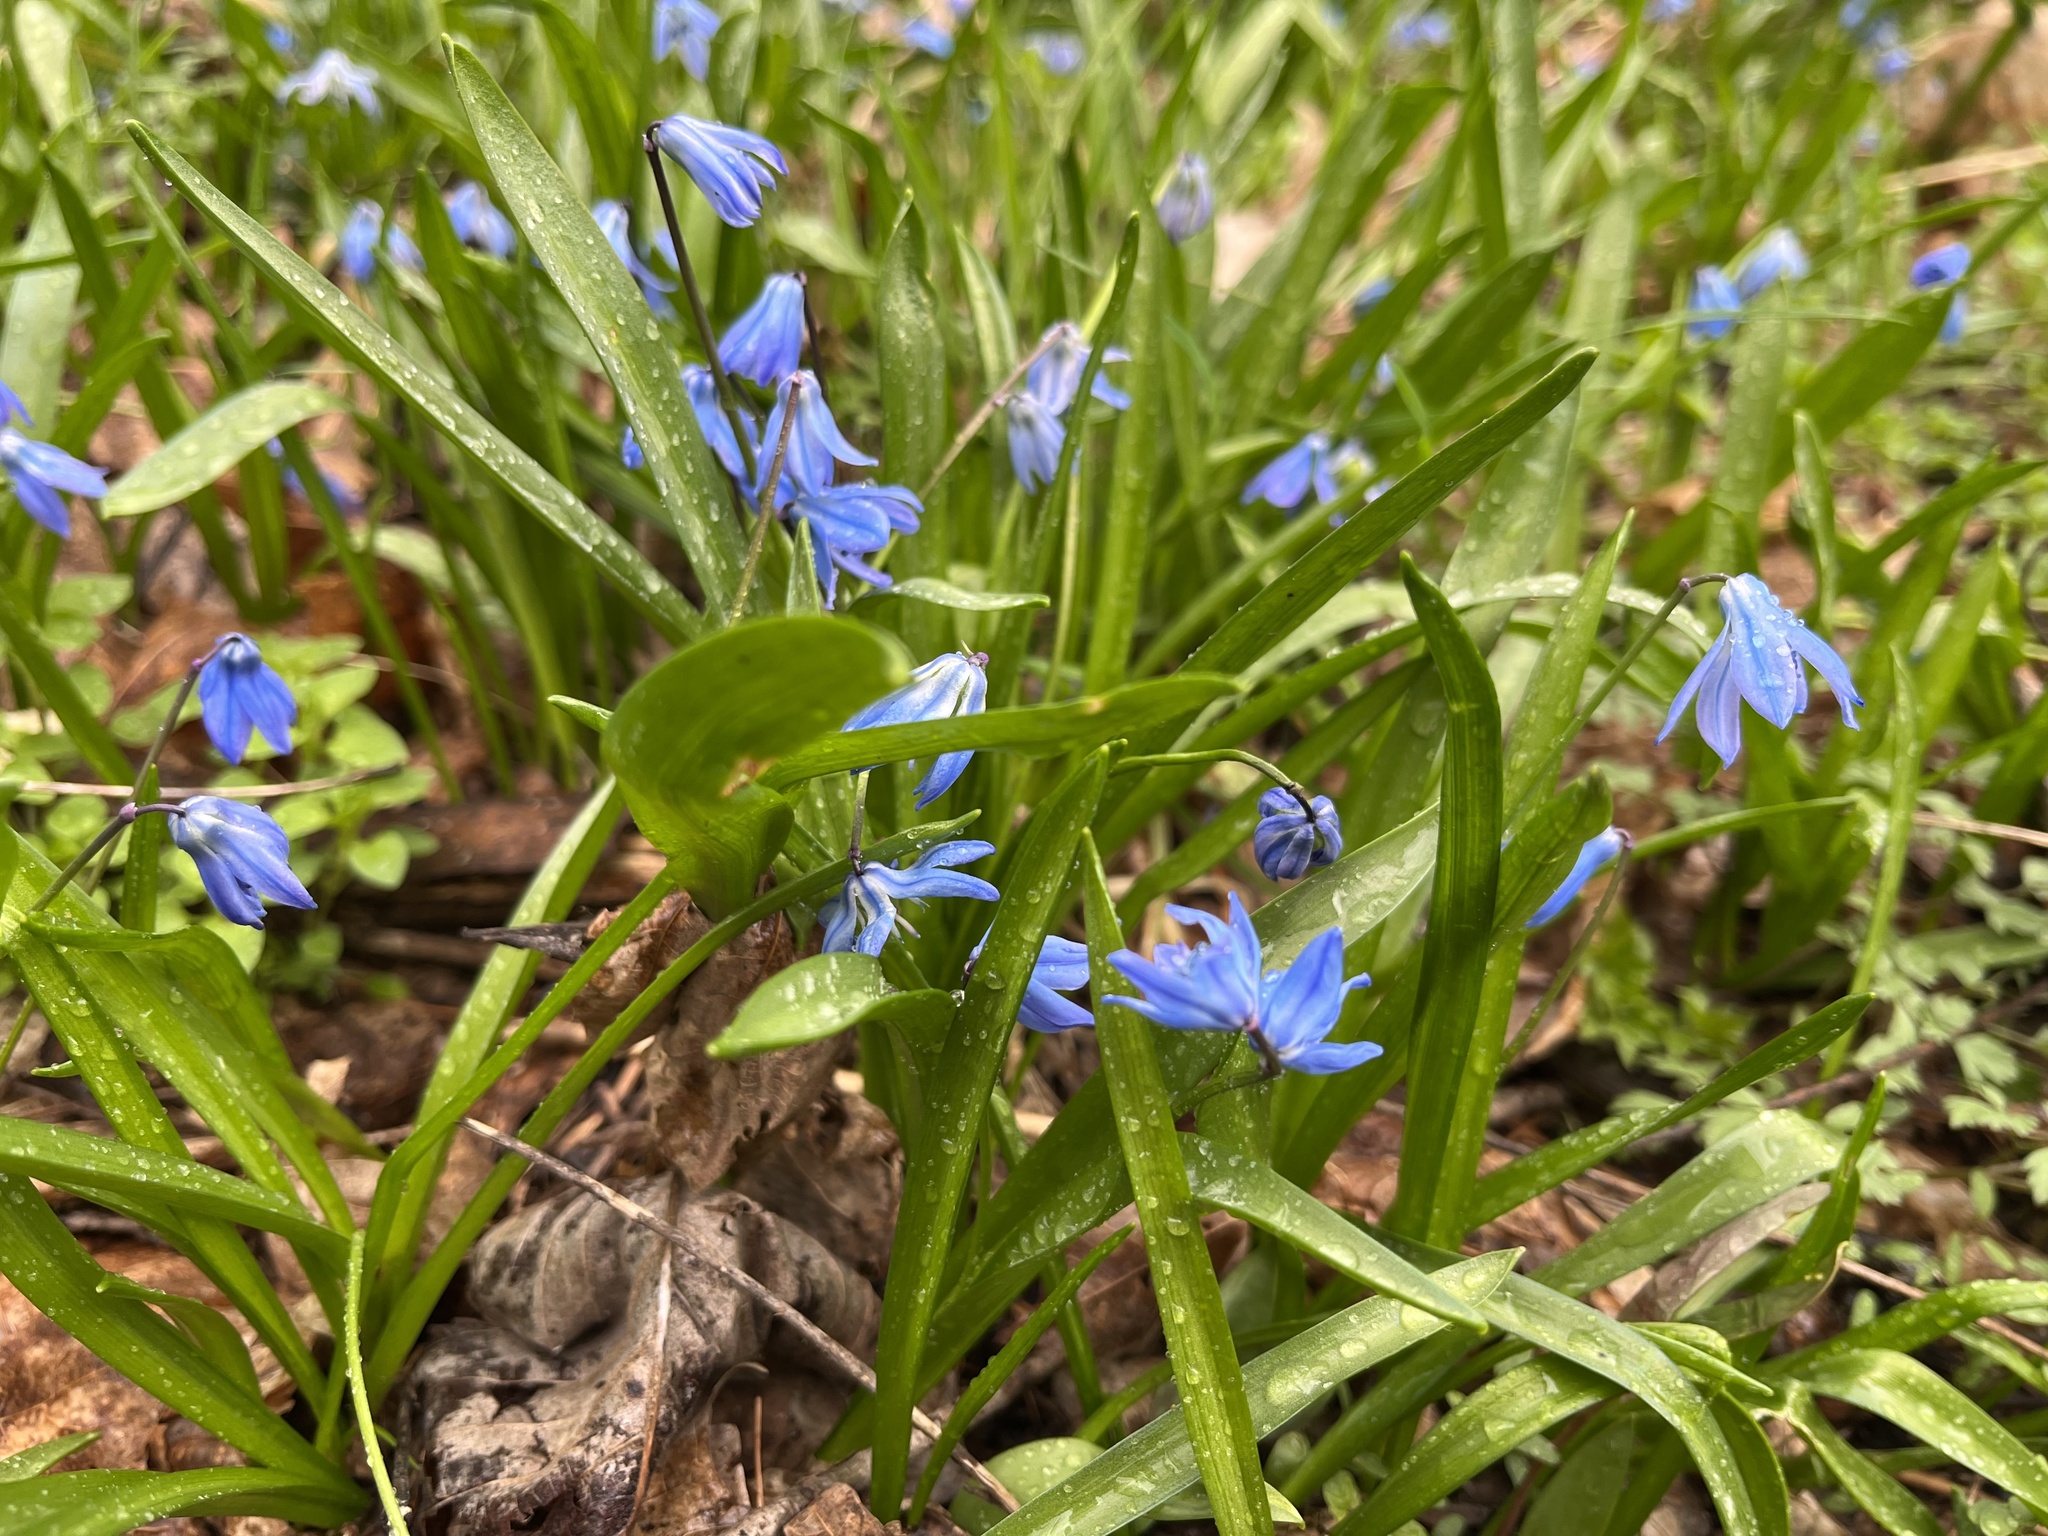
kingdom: Plantae
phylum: Tracheophyta
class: Liliopsida
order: Asparagales
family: Asparagaceae
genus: Scilla
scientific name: Scilla siberica
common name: Siberian squill
